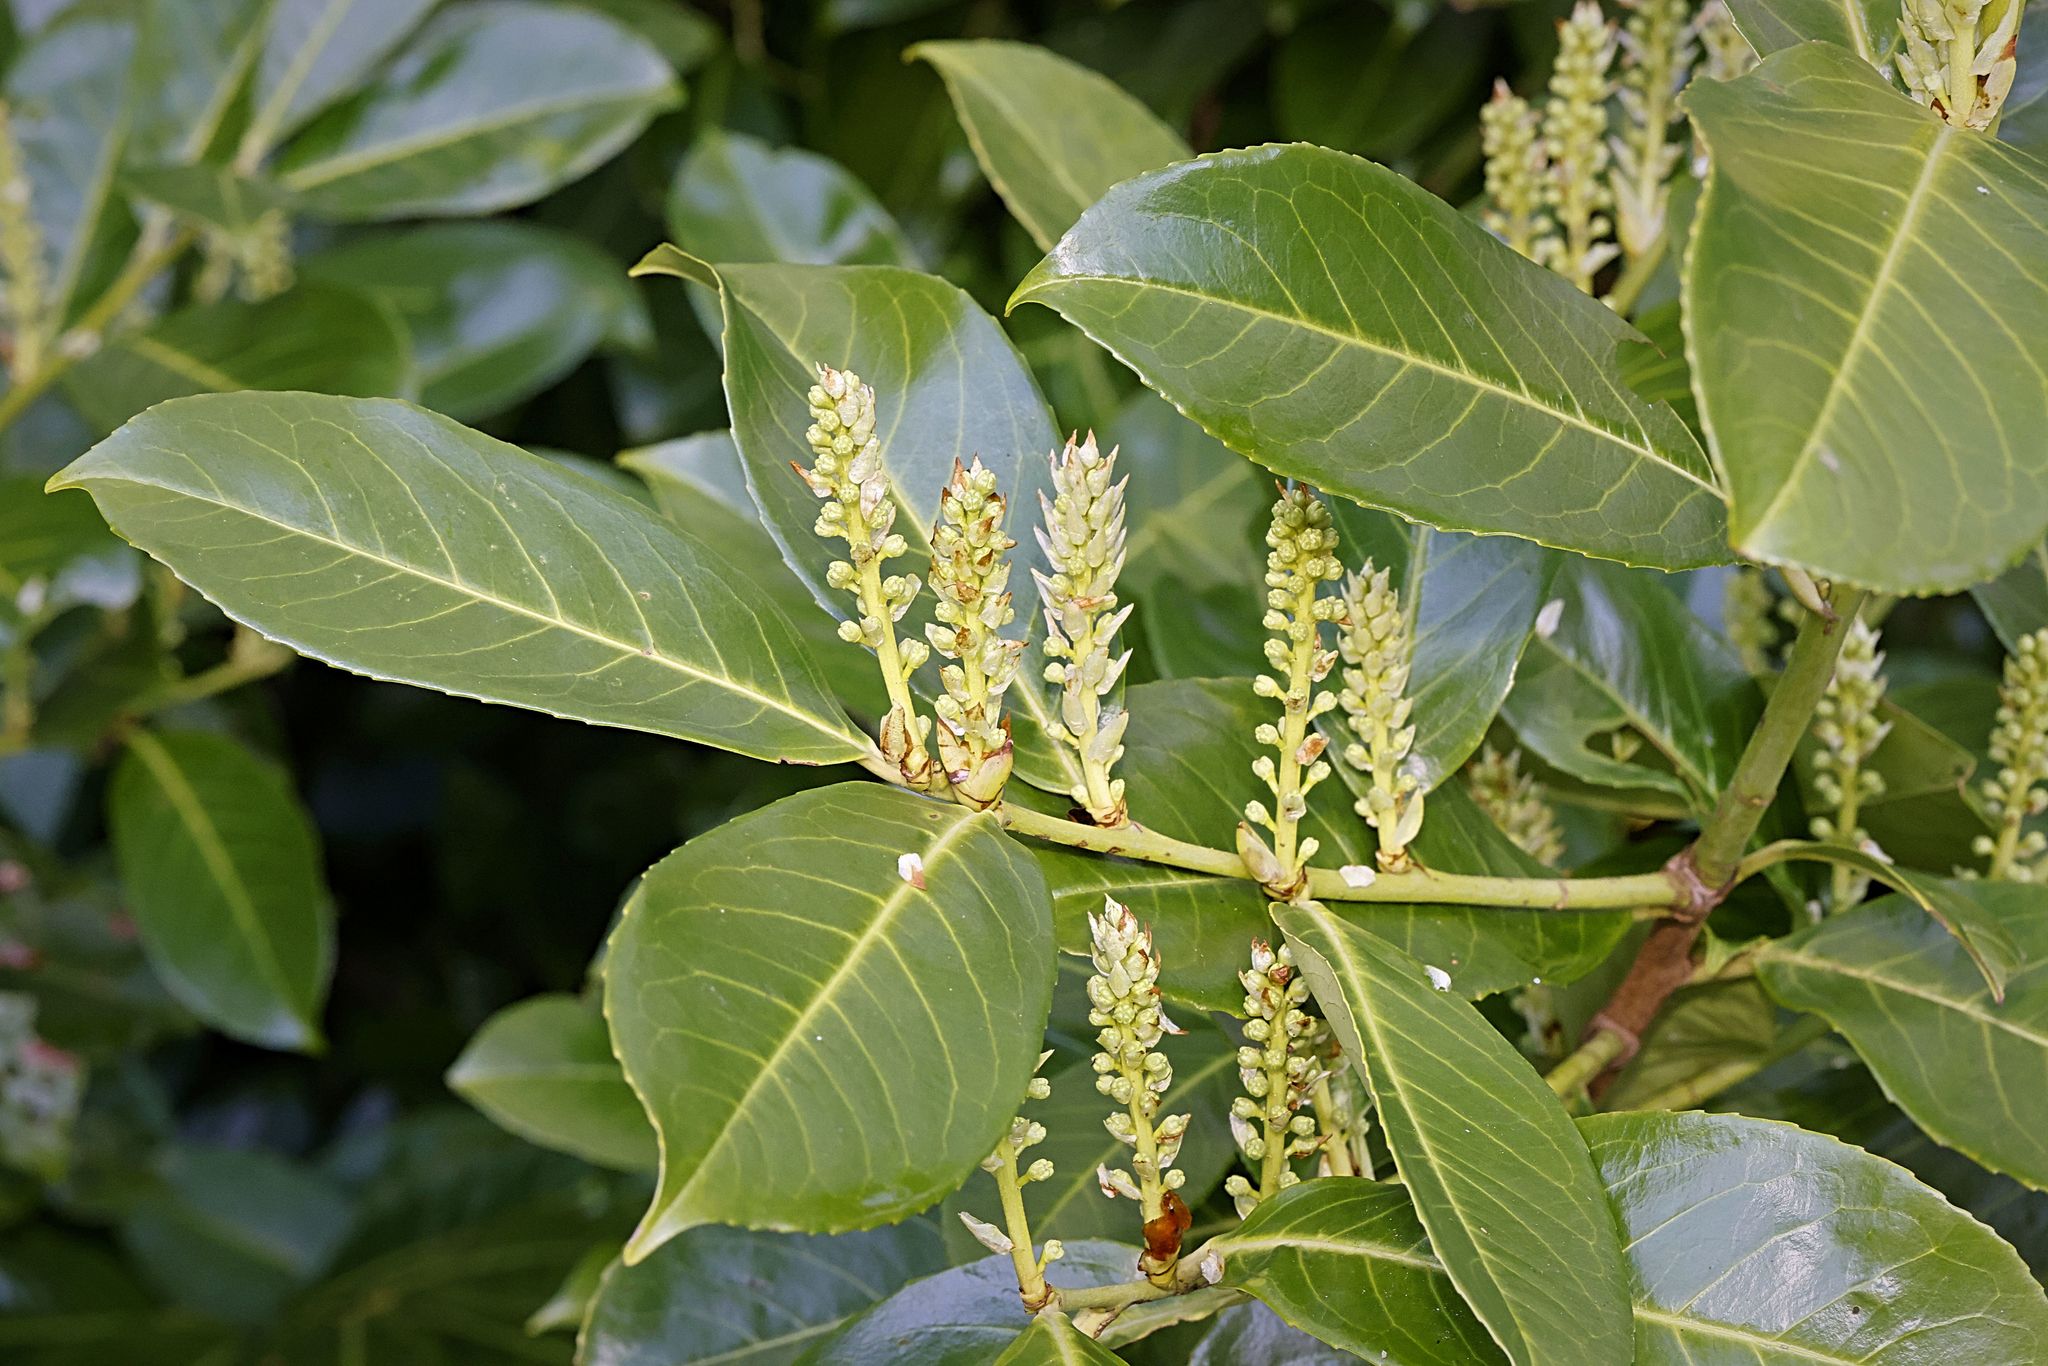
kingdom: Plantae
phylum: Tracheophyta
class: Magnoliopsida
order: Rosales
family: Rosaceae
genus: Prunus
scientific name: Prunus laurocerasus
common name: Cherry laurel
